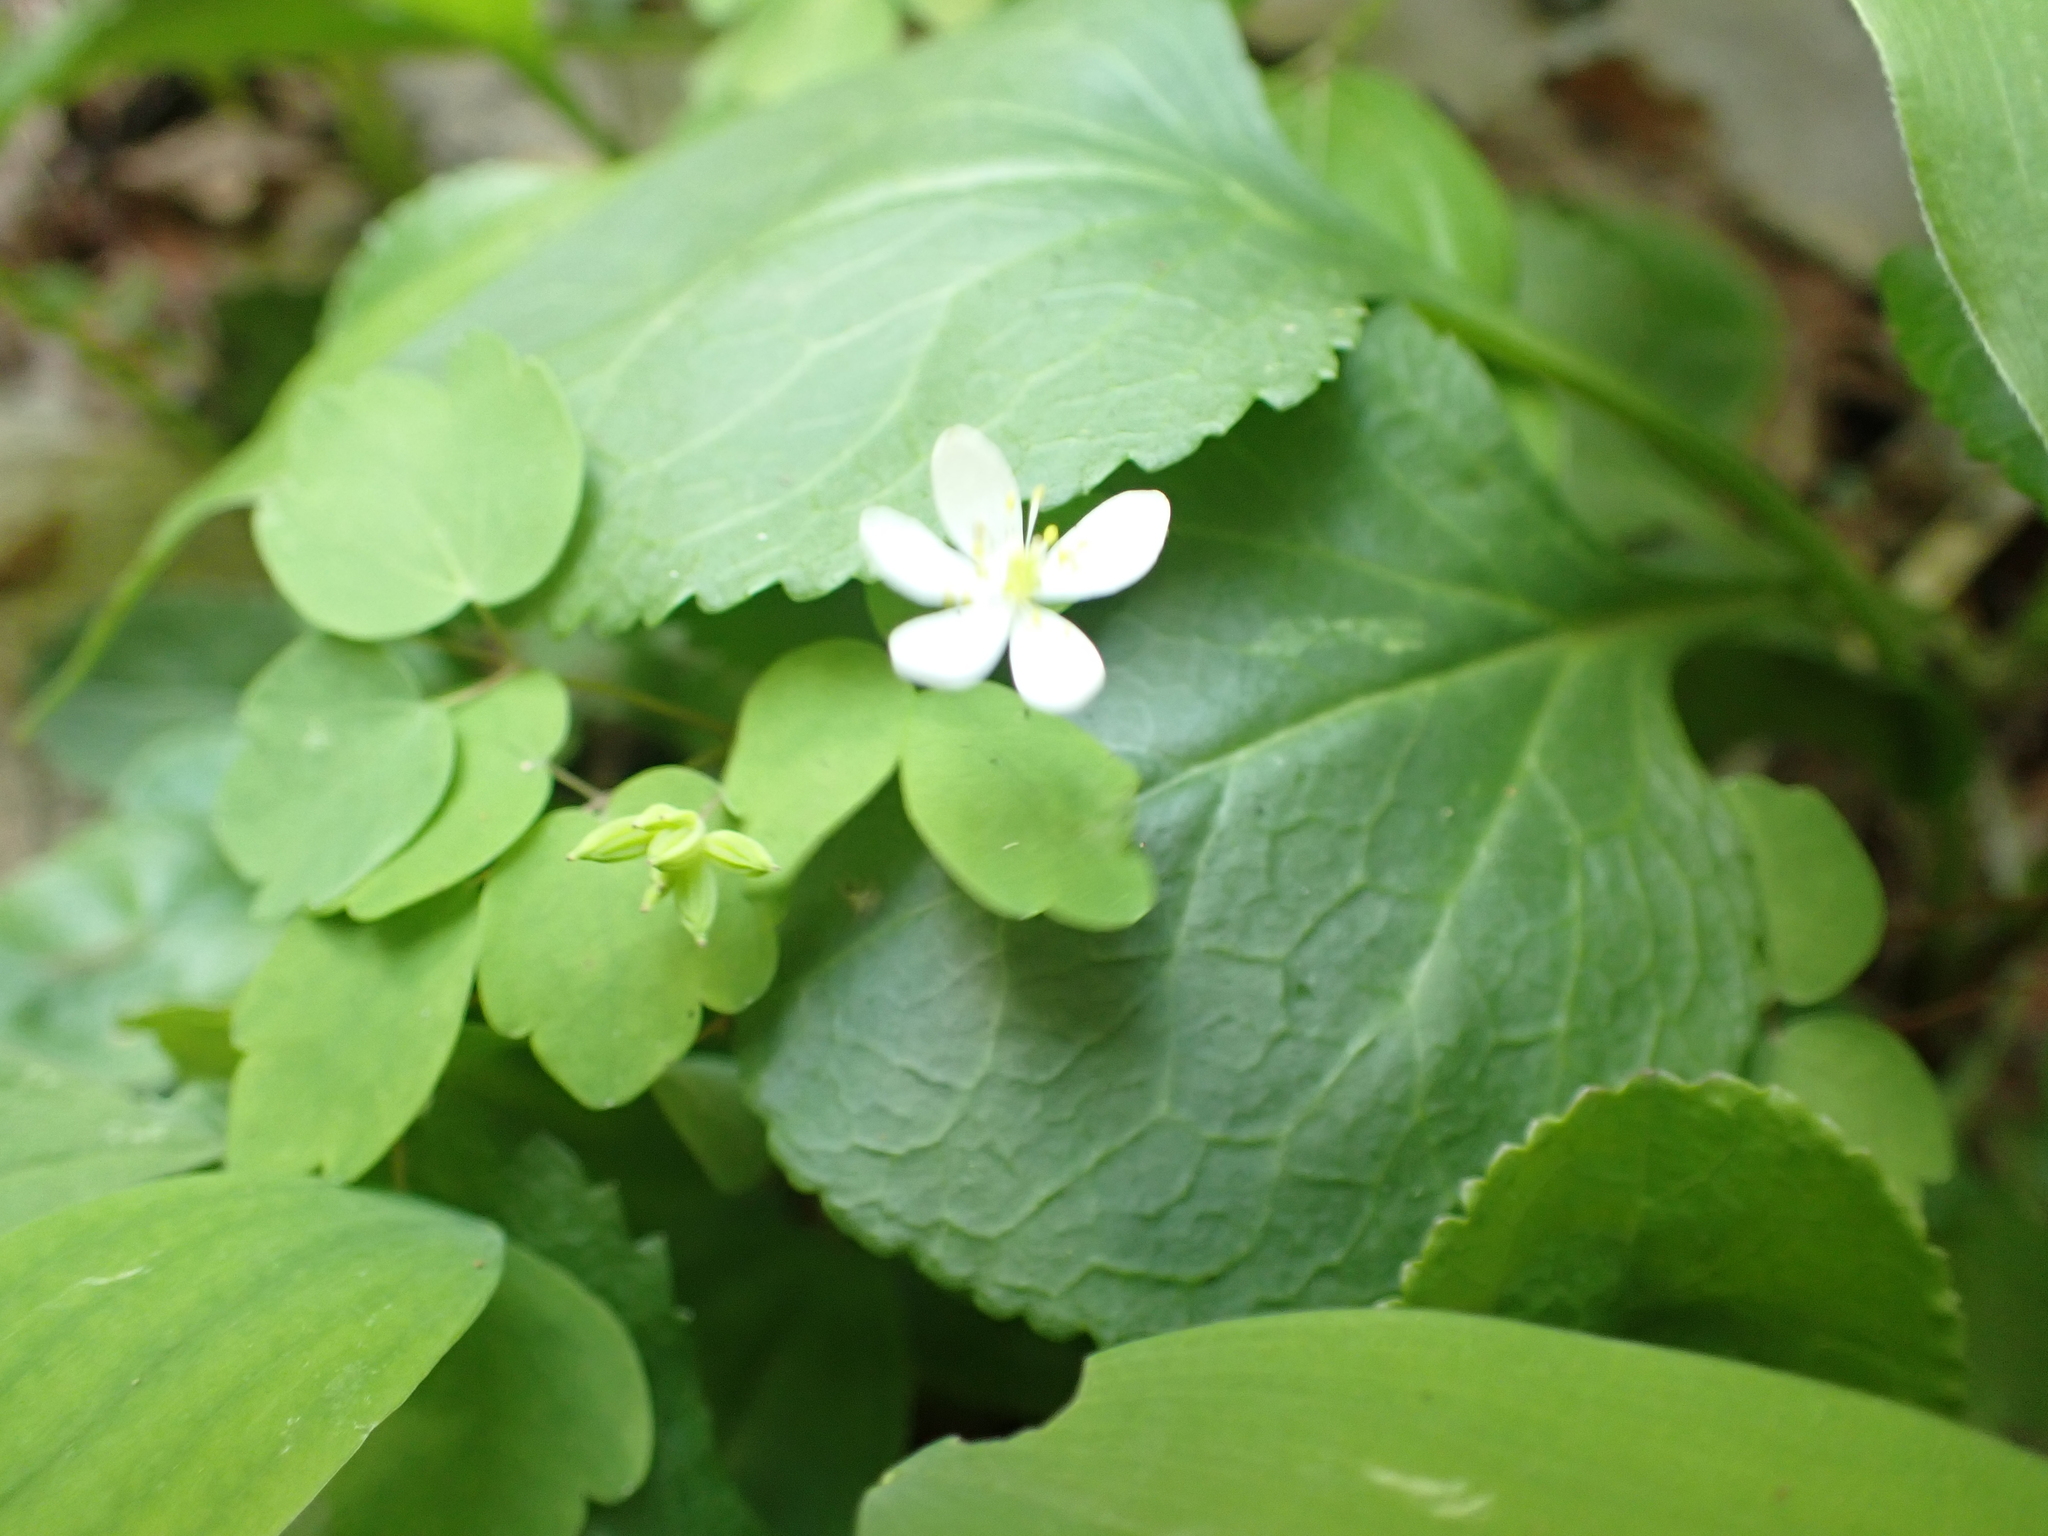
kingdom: Plantae
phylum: Tracheophyta
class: Magnoliopsida
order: Ranunculales
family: Ranunculaceae
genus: Thalictrum
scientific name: Thalictrum thalictroides
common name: Rue-anemone
